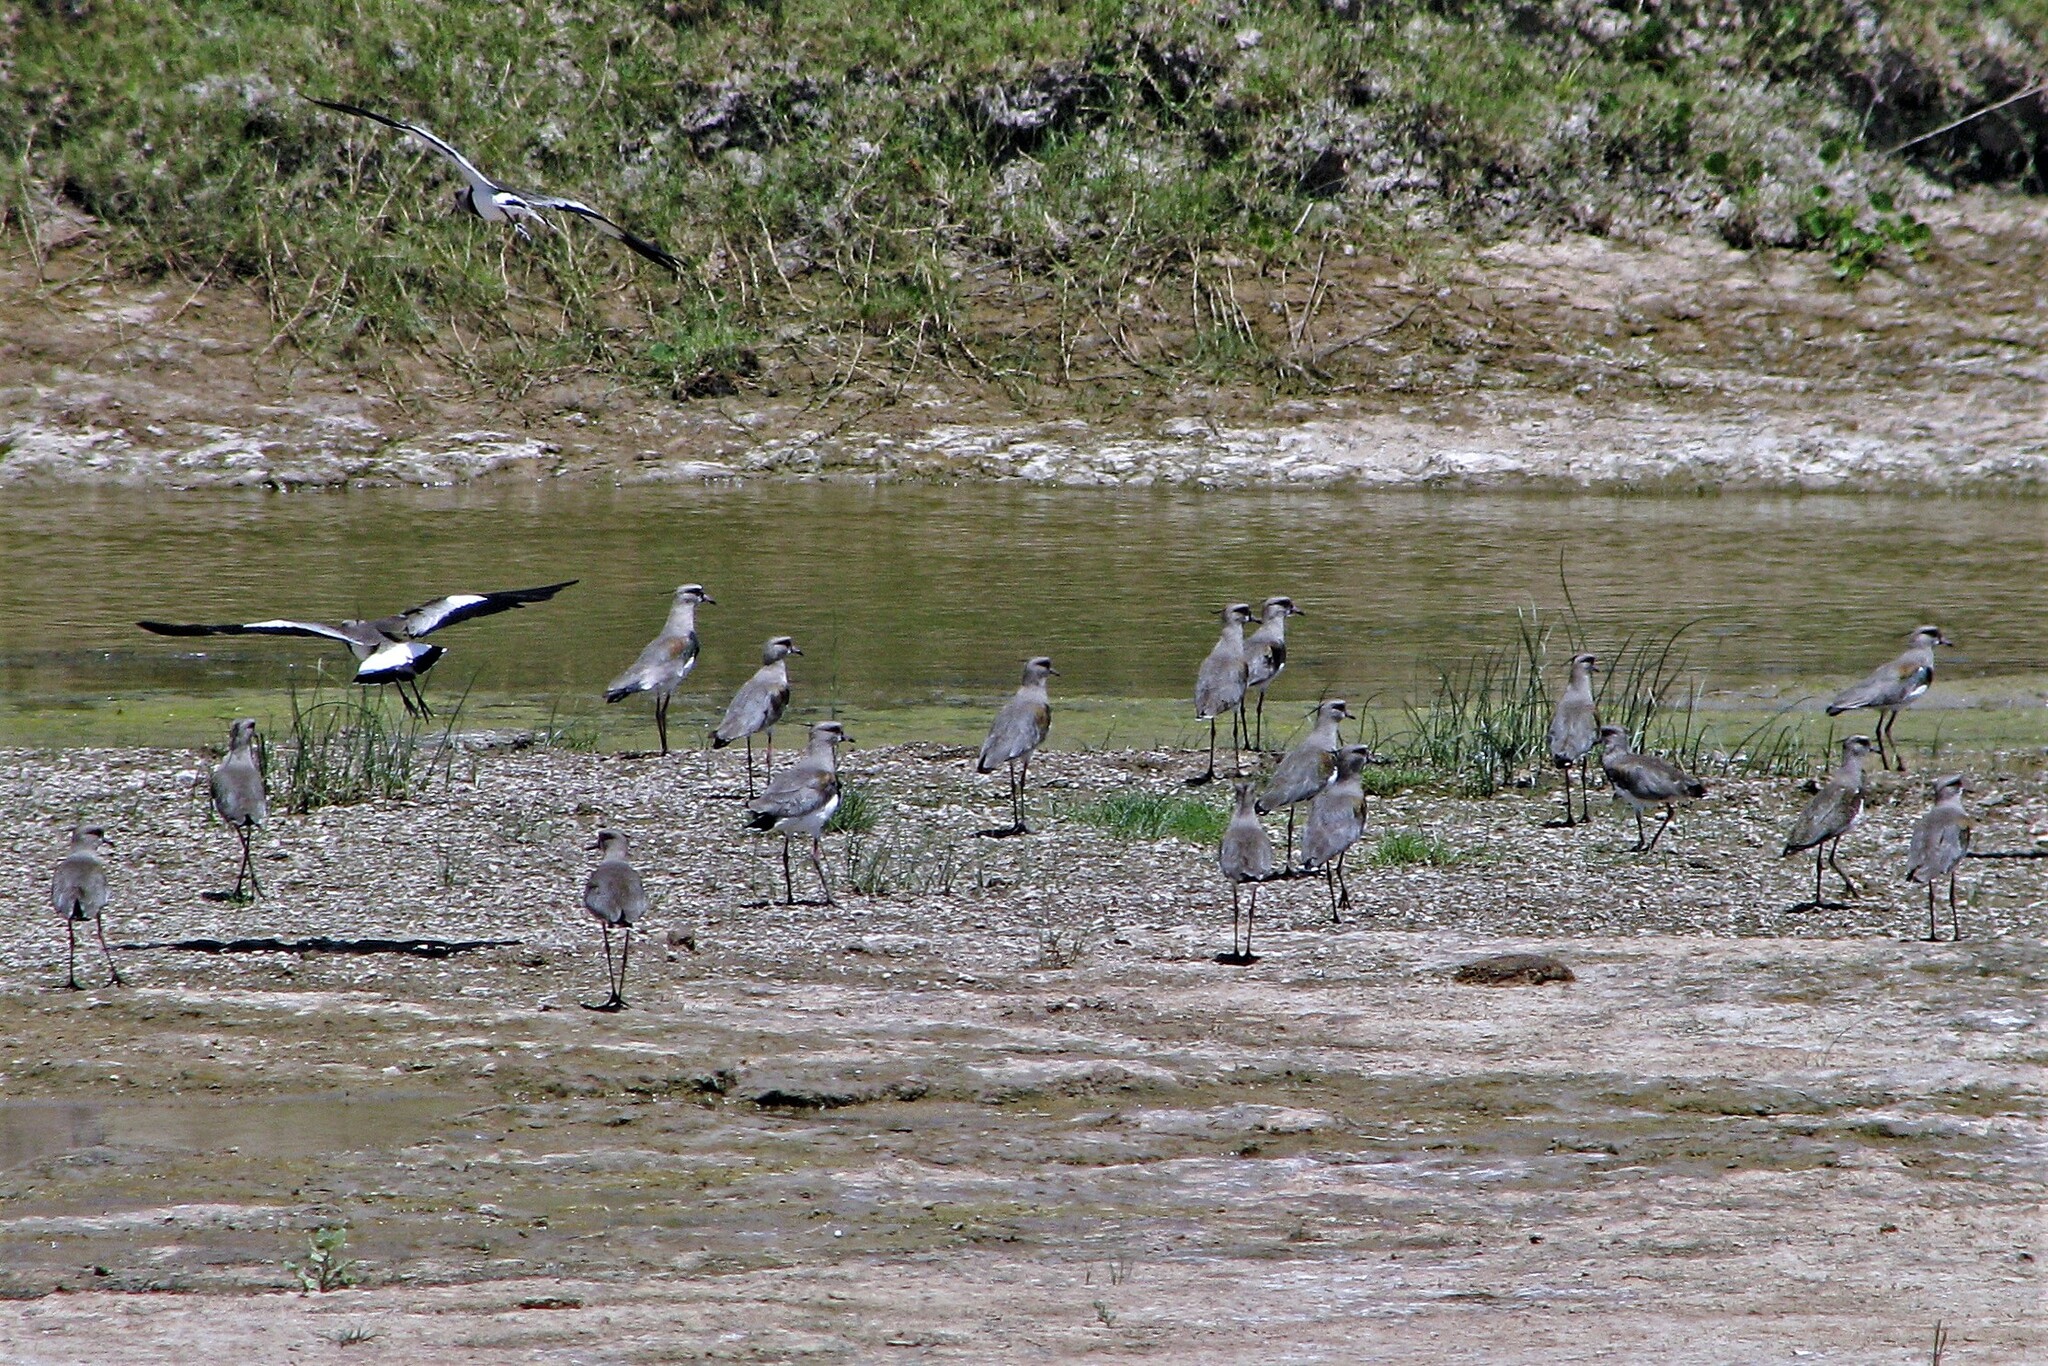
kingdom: Animalia
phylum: Chordata
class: Aves
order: Charadriiformes
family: Charadriidae
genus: Vanellus
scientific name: Vanellus chilensis
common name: Southern lapwing
